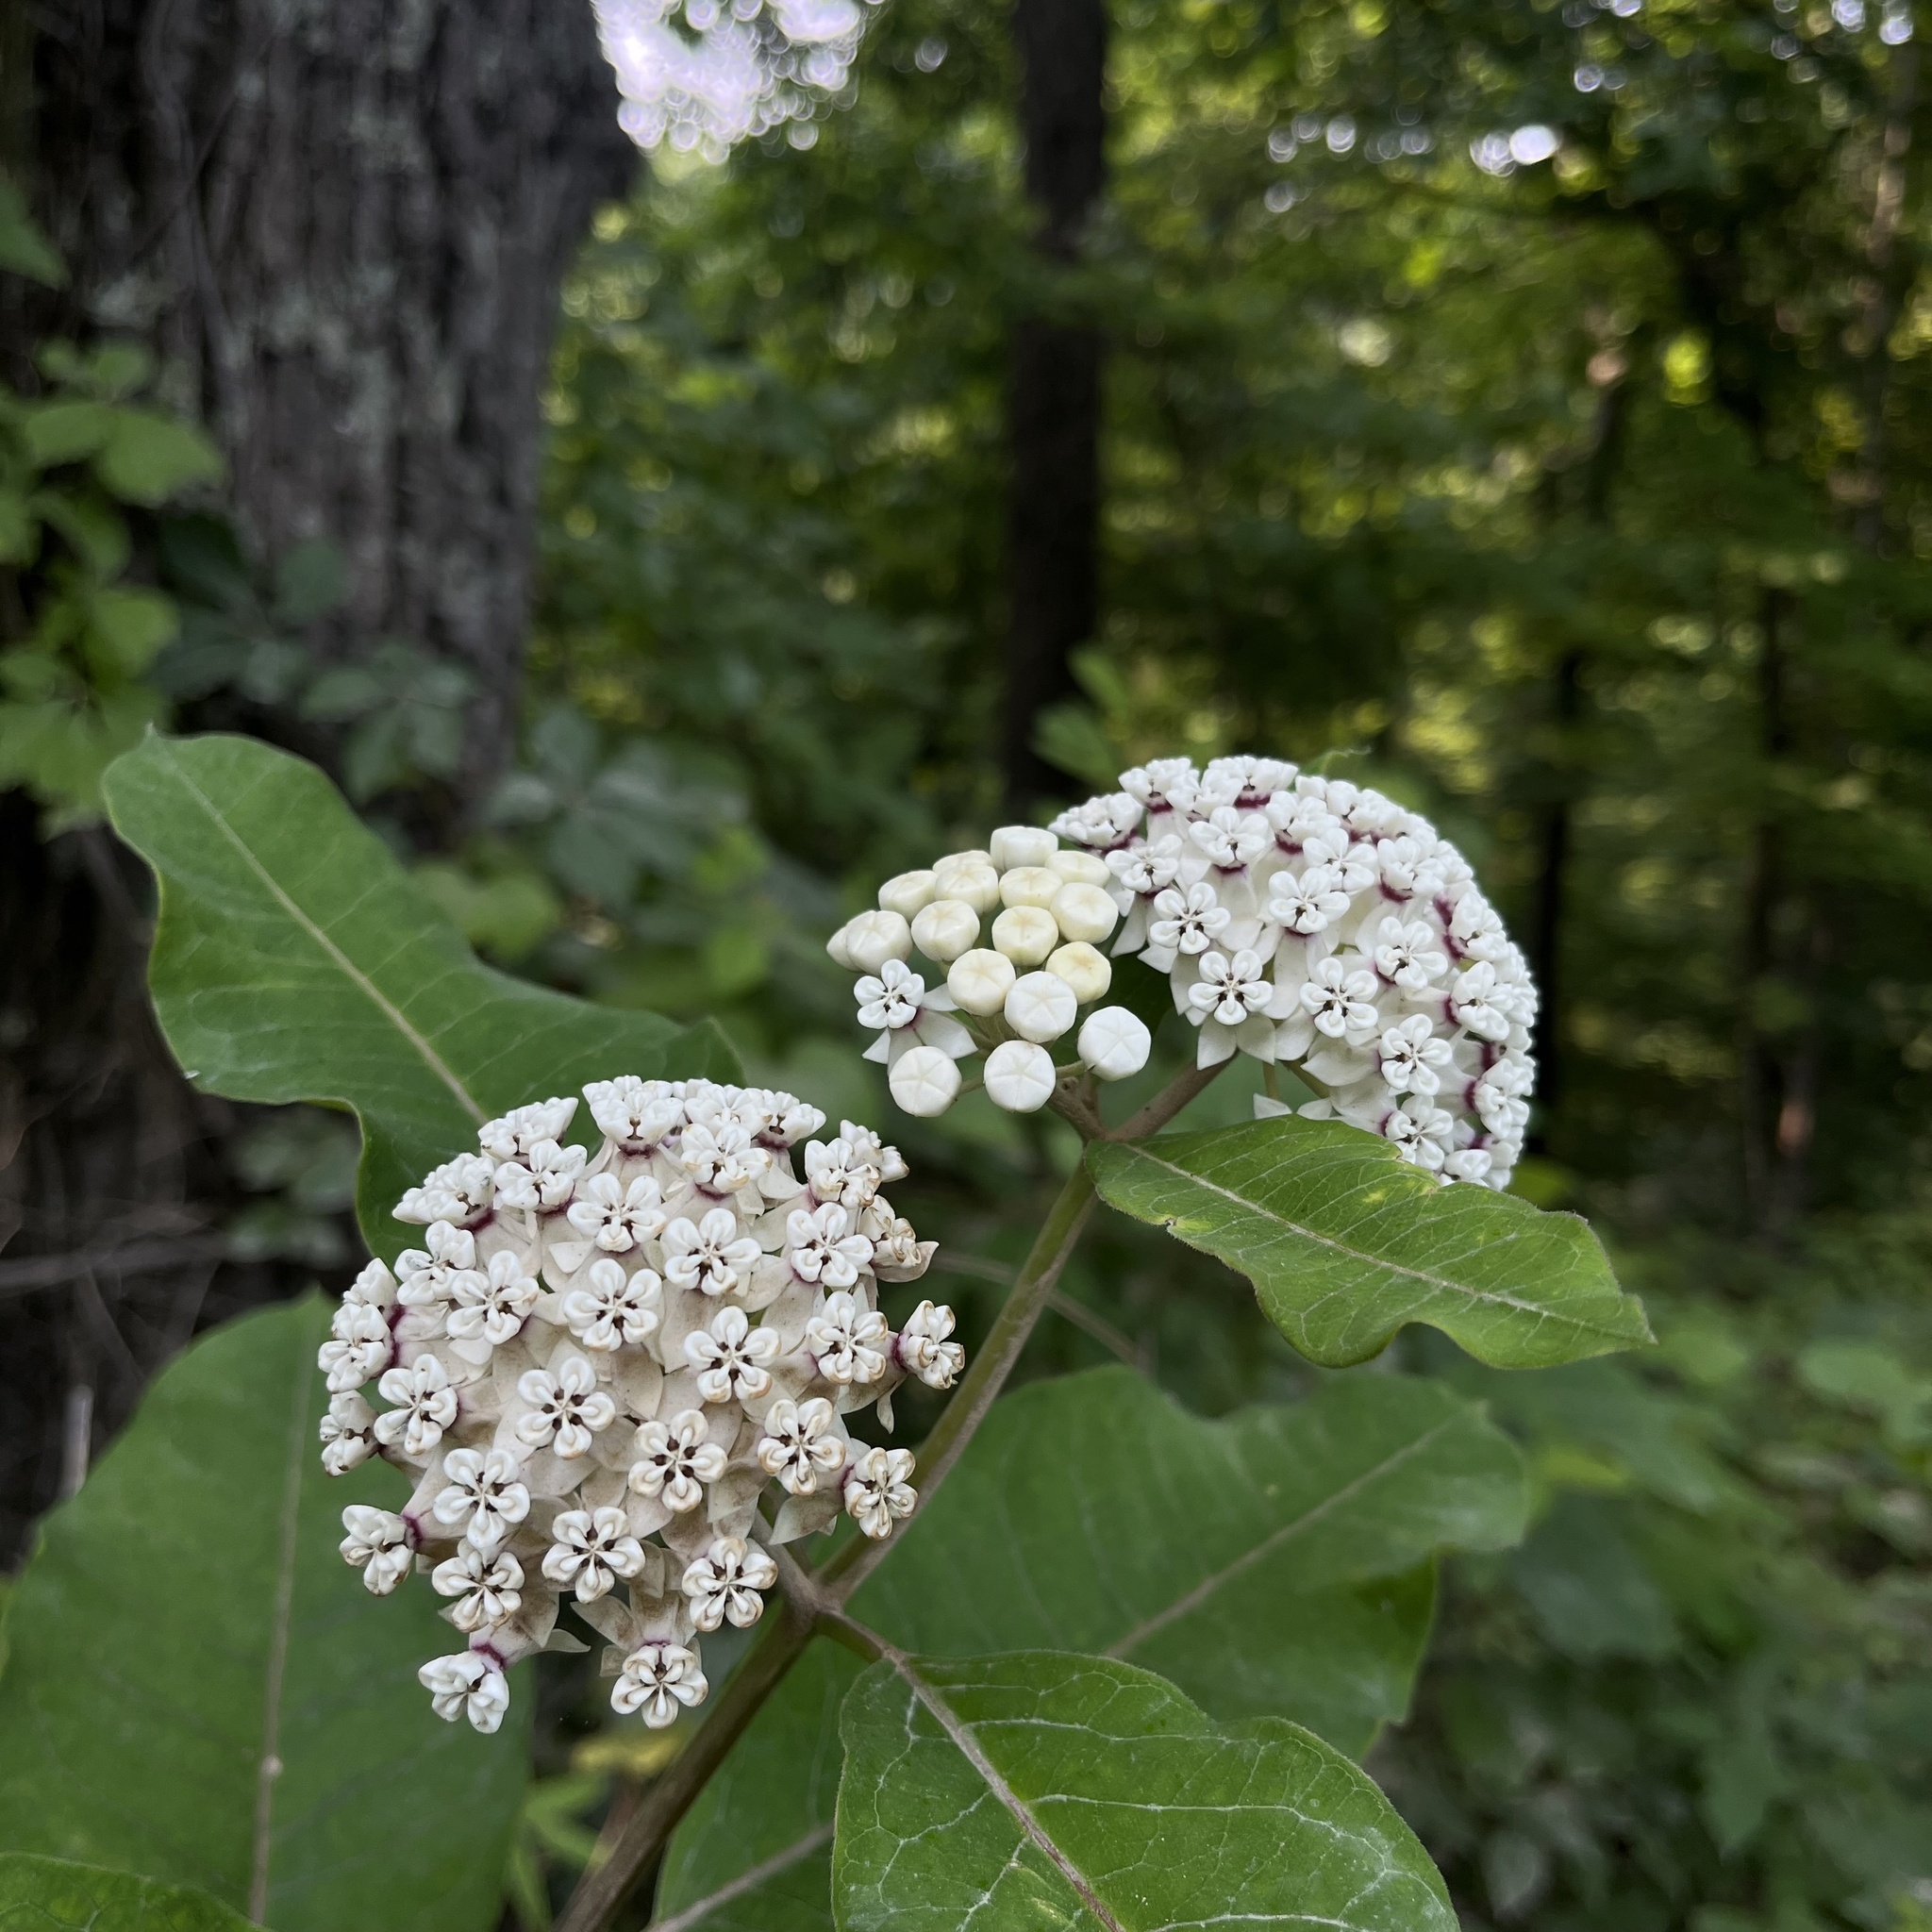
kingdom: Plantae
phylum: Tracheophyta
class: Magnoliopsida
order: Gentianales
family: Apocynaceae
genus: Asclepias
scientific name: Asclepias variegata
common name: Variegated milkweed
